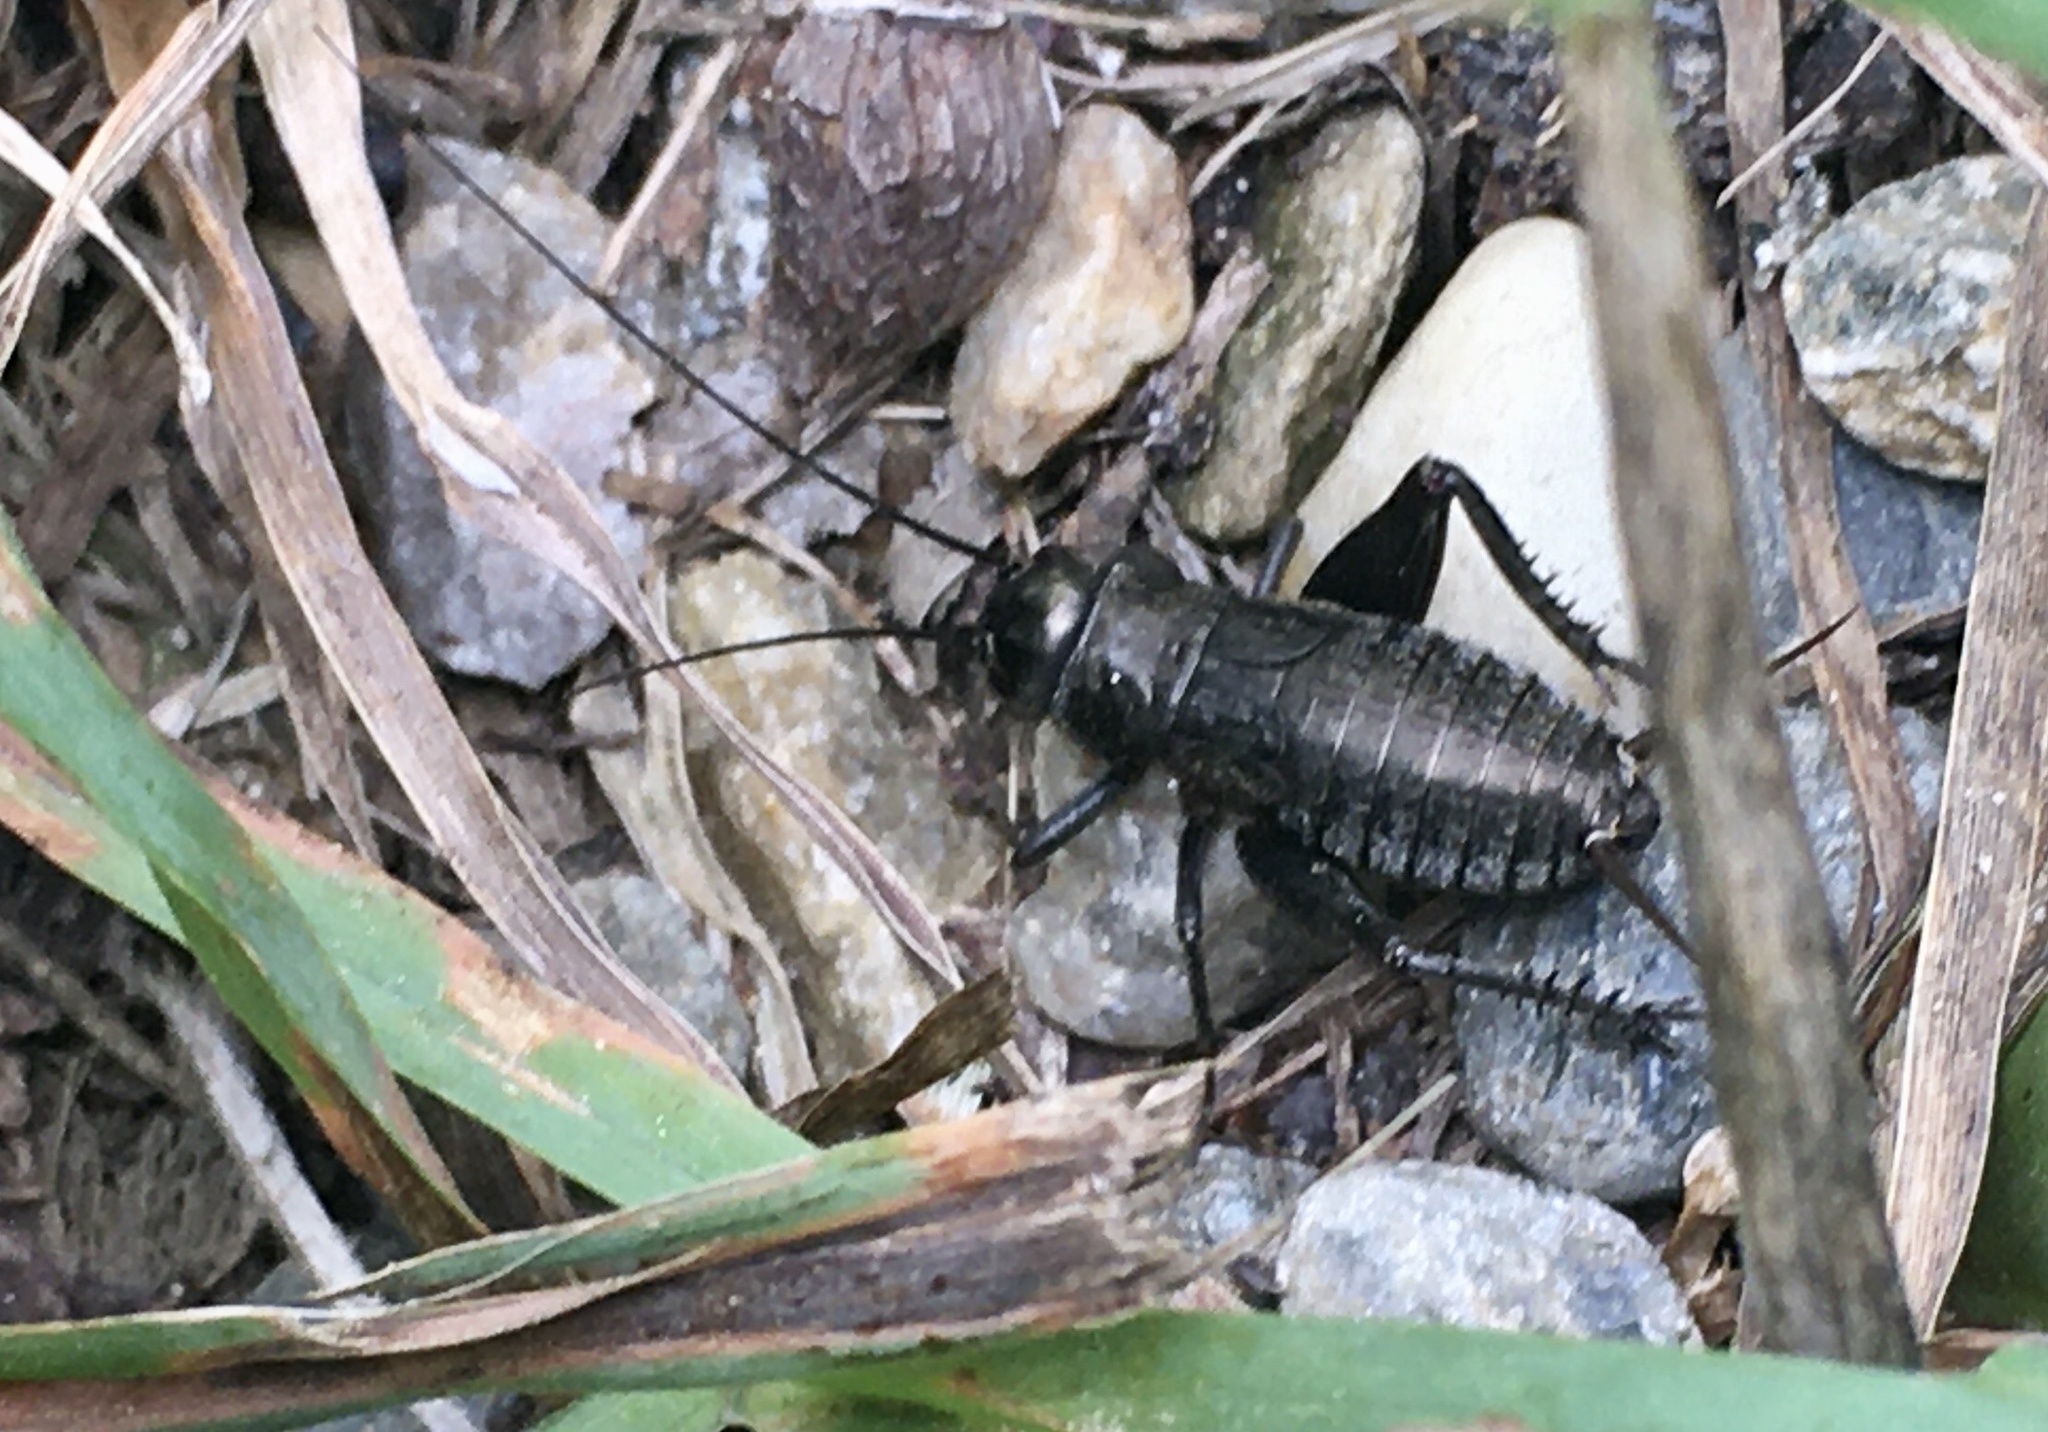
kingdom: Animalia
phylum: Arthropoda
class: Insecta
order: Orthoptera
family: Gryllidae
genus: Gryllus
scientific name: Gryllus pennsylvanicus
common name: Fall field cricket
